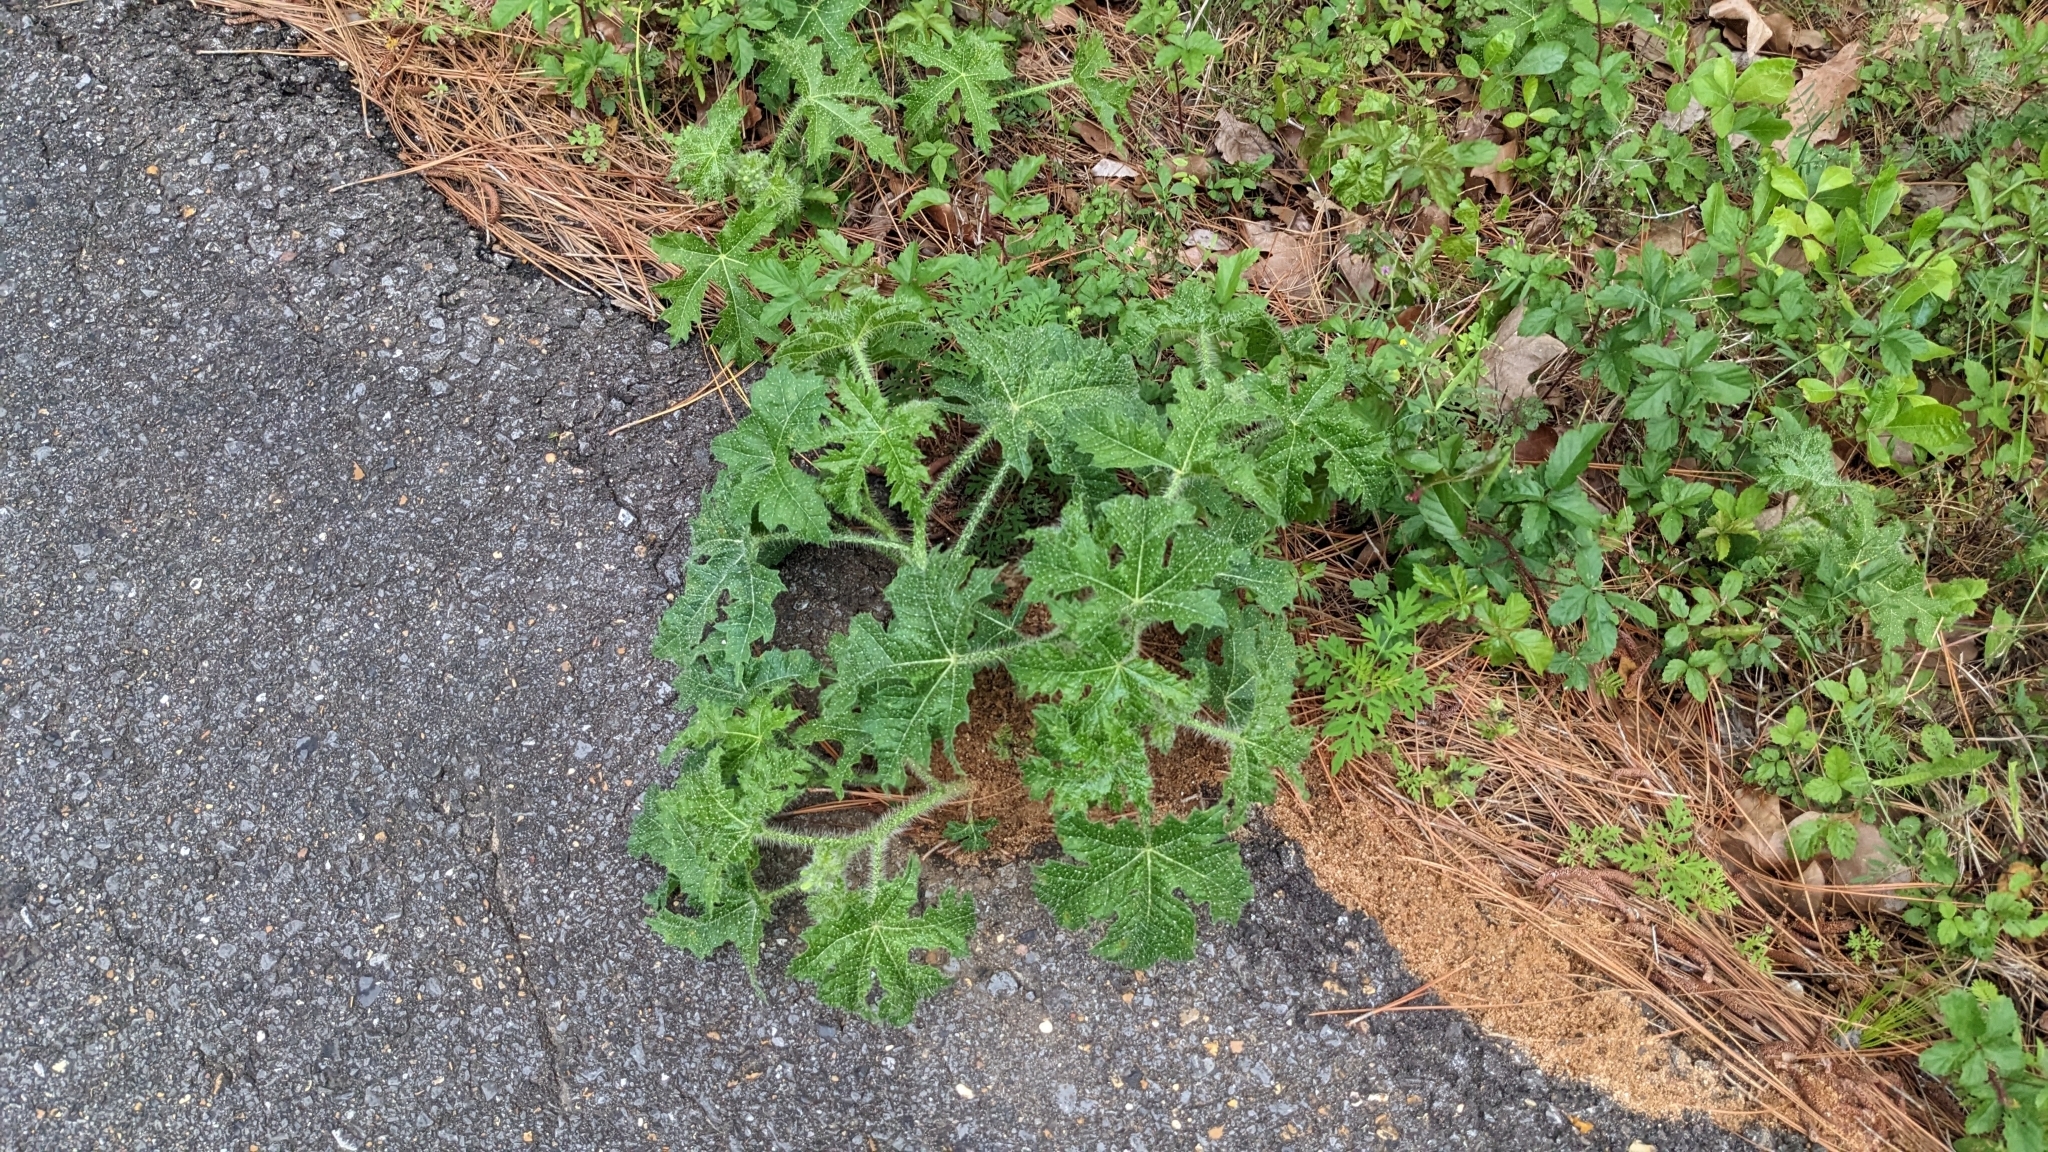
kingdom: Plantae
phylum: Tracheophyta
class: Magnoliopsida
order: Malpighiales
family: Euphorbiaceae
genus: Cnidoscolus
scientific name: Cnidoscolus texanus
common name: Texas bull-nettle
